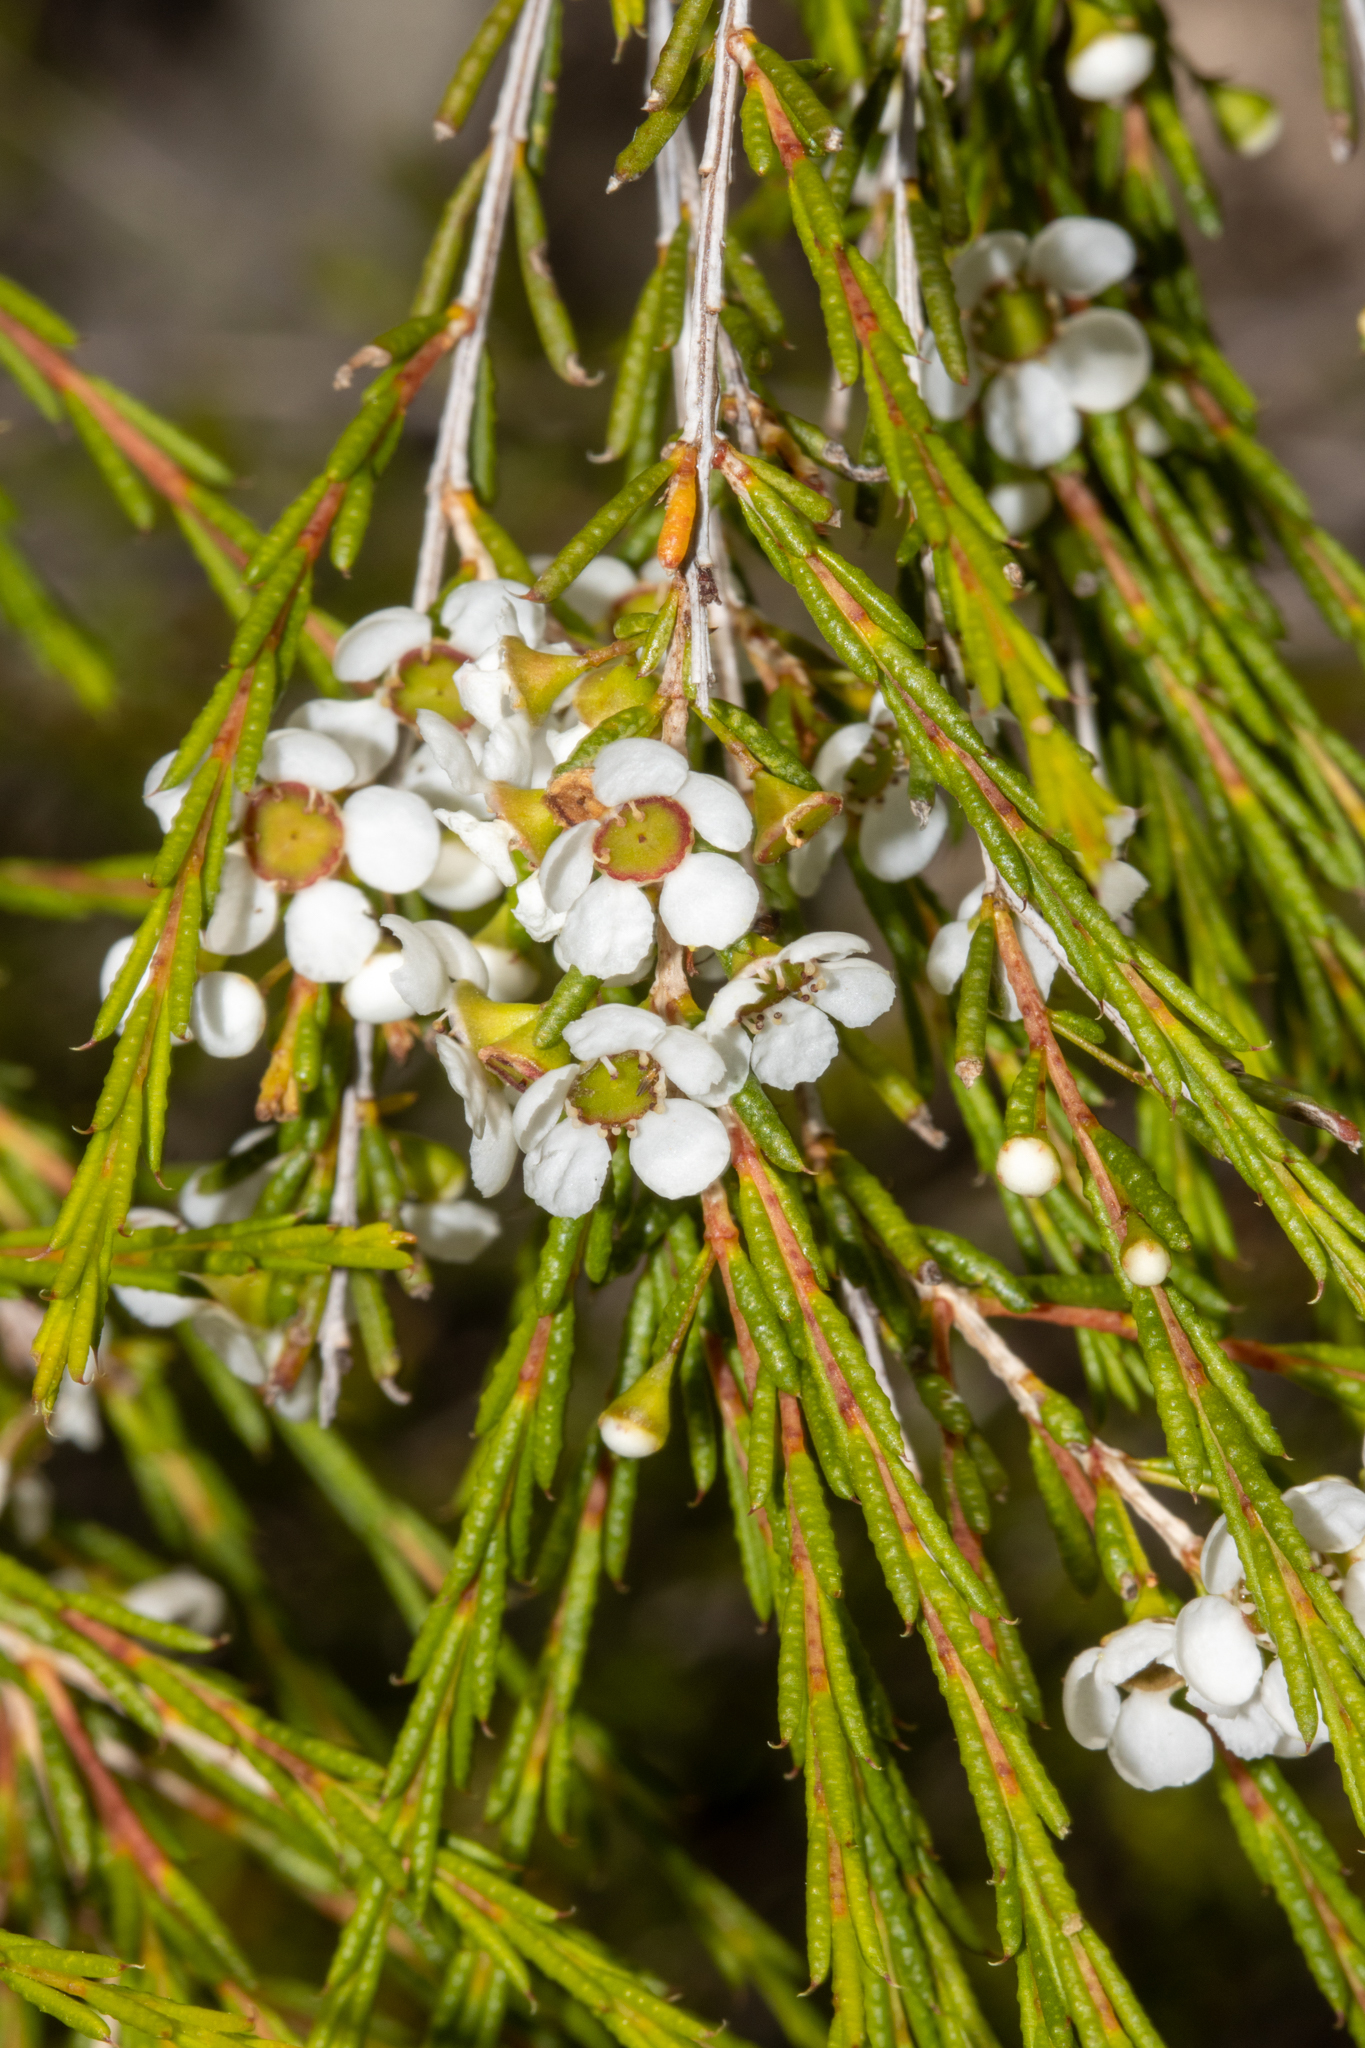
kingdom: Plantae
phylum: Tracheophyta
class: Magnoliopsida
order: Myrtales
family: Myrtaceae
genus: Hysterobaeckea
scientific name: Hysterobaeckea behrii
